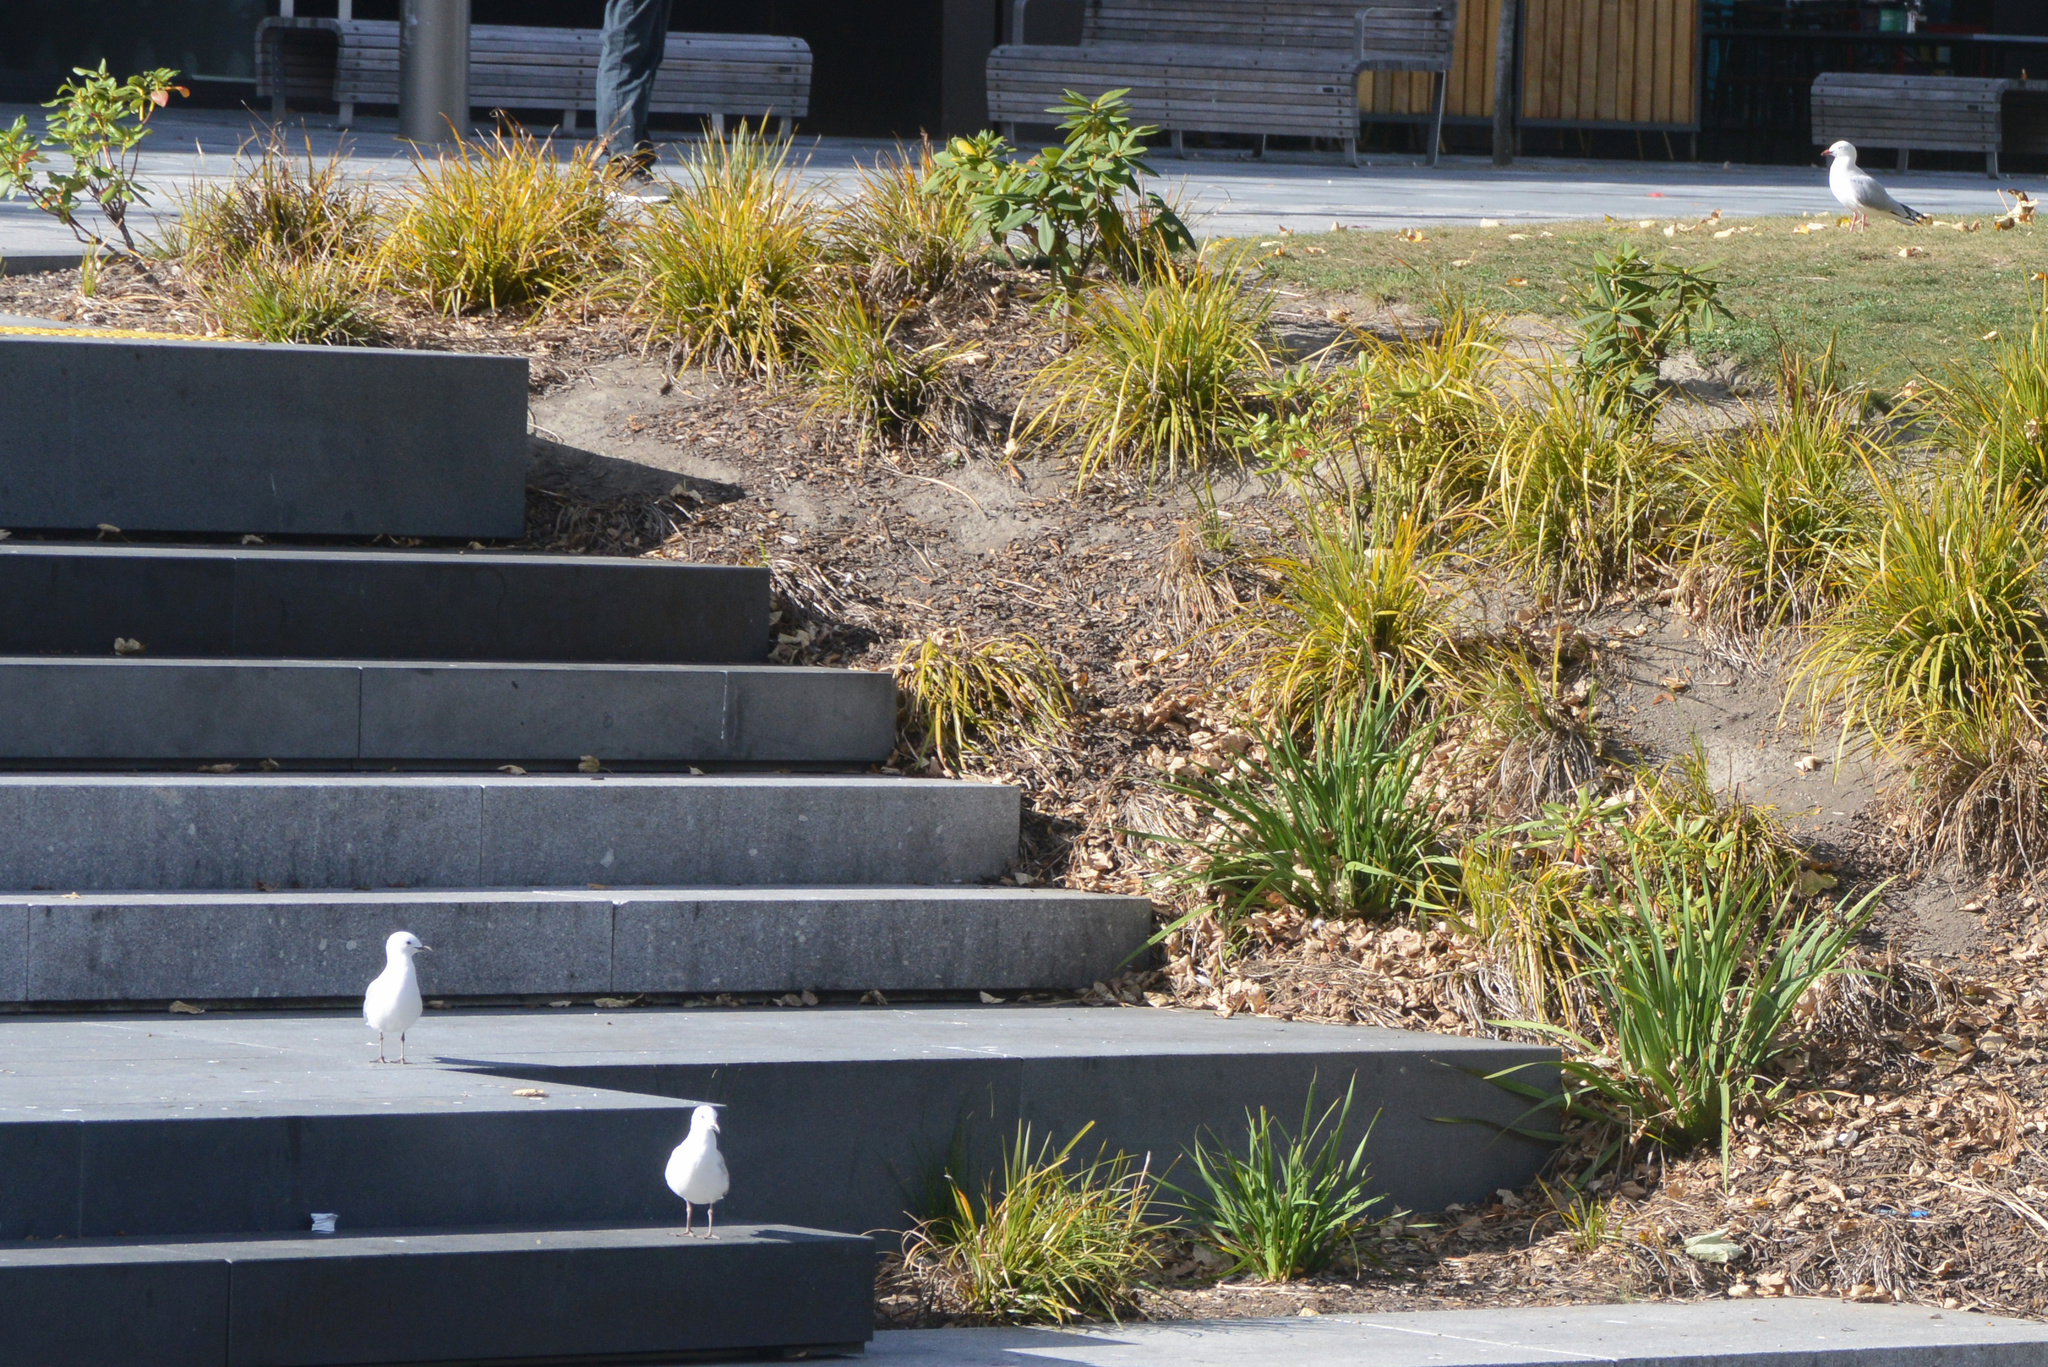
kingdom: Animalia
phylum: Chordata
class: Aves
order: Charadriiformes
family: Laridae
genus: Chroicocephalus
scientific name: Chroicocephalus novaehollandiae
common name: Silver gull
